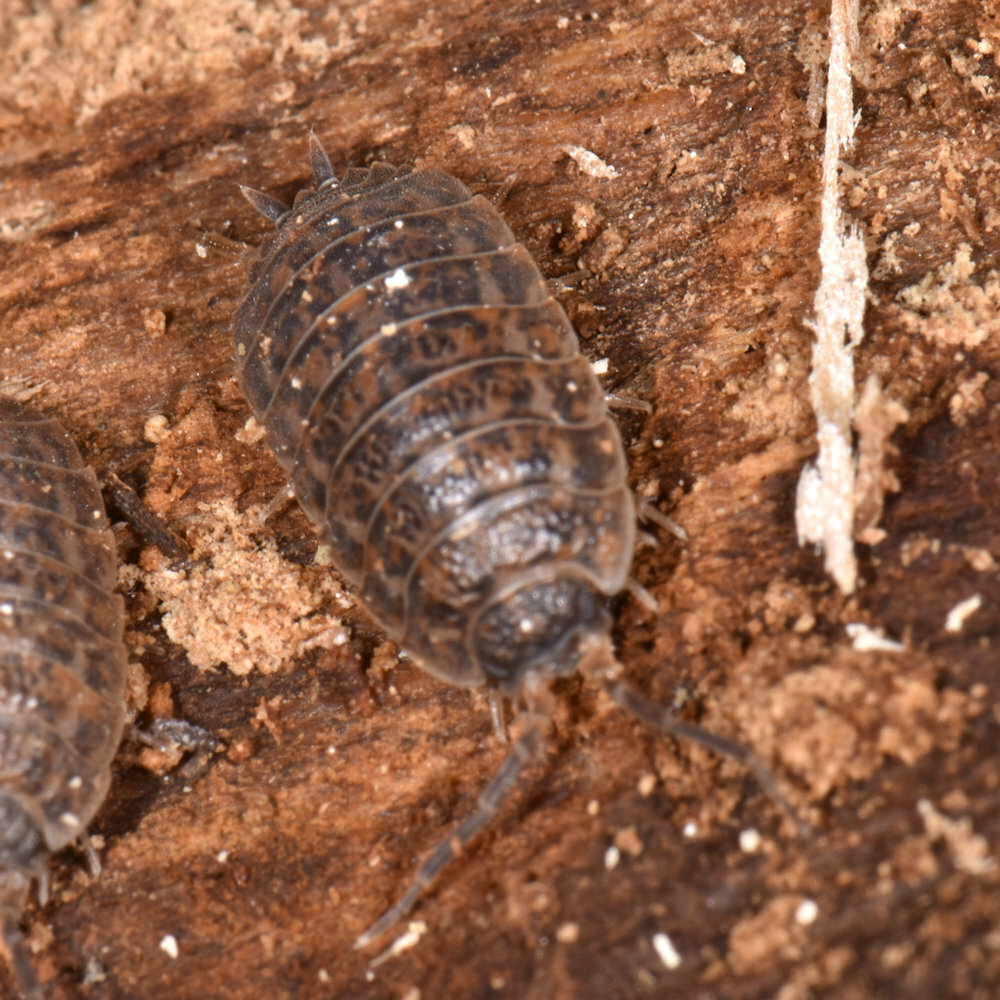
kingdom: Animalia
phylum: Arthropoda
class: Malacostraca
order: Isopoda
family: Trachelipodidae
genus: Trachelipus
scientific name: Trachelipus rathkii
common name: Isopod
